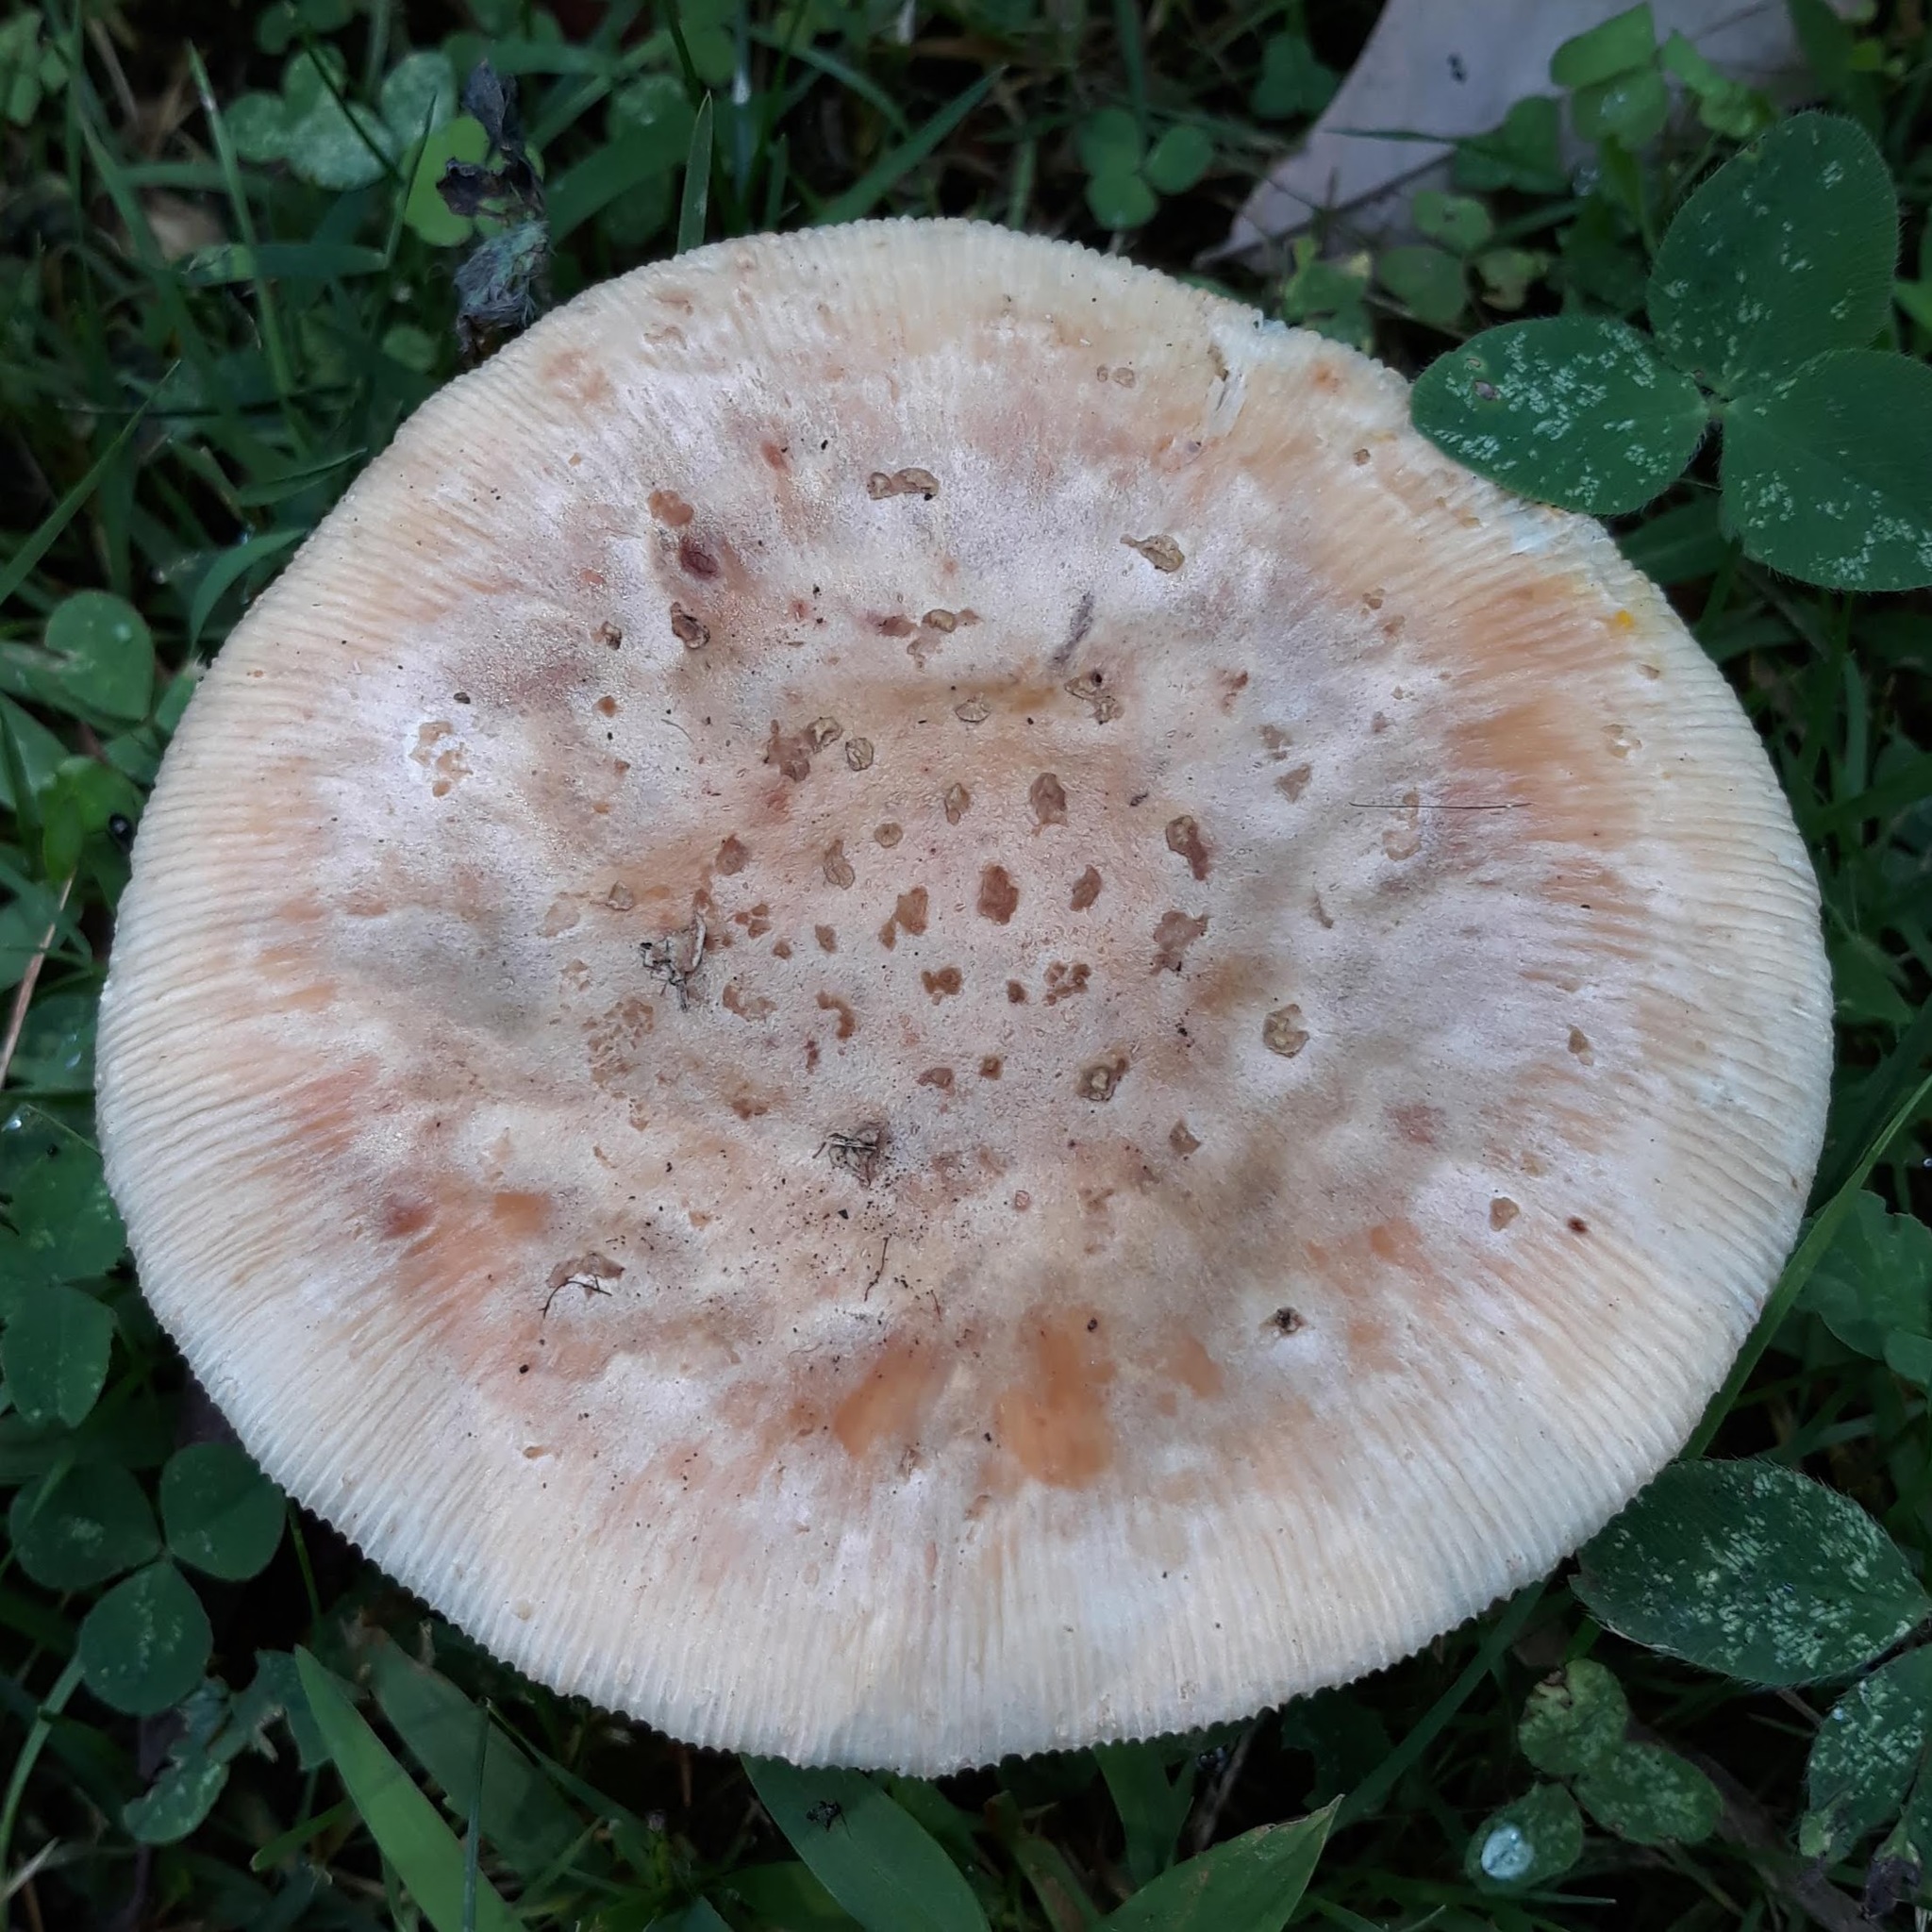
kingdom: Fungi
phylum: Basidiomycota
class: Agaricomycetes
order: Agaricales
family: Amanitaceae
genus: Amanita
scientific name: Amanita
